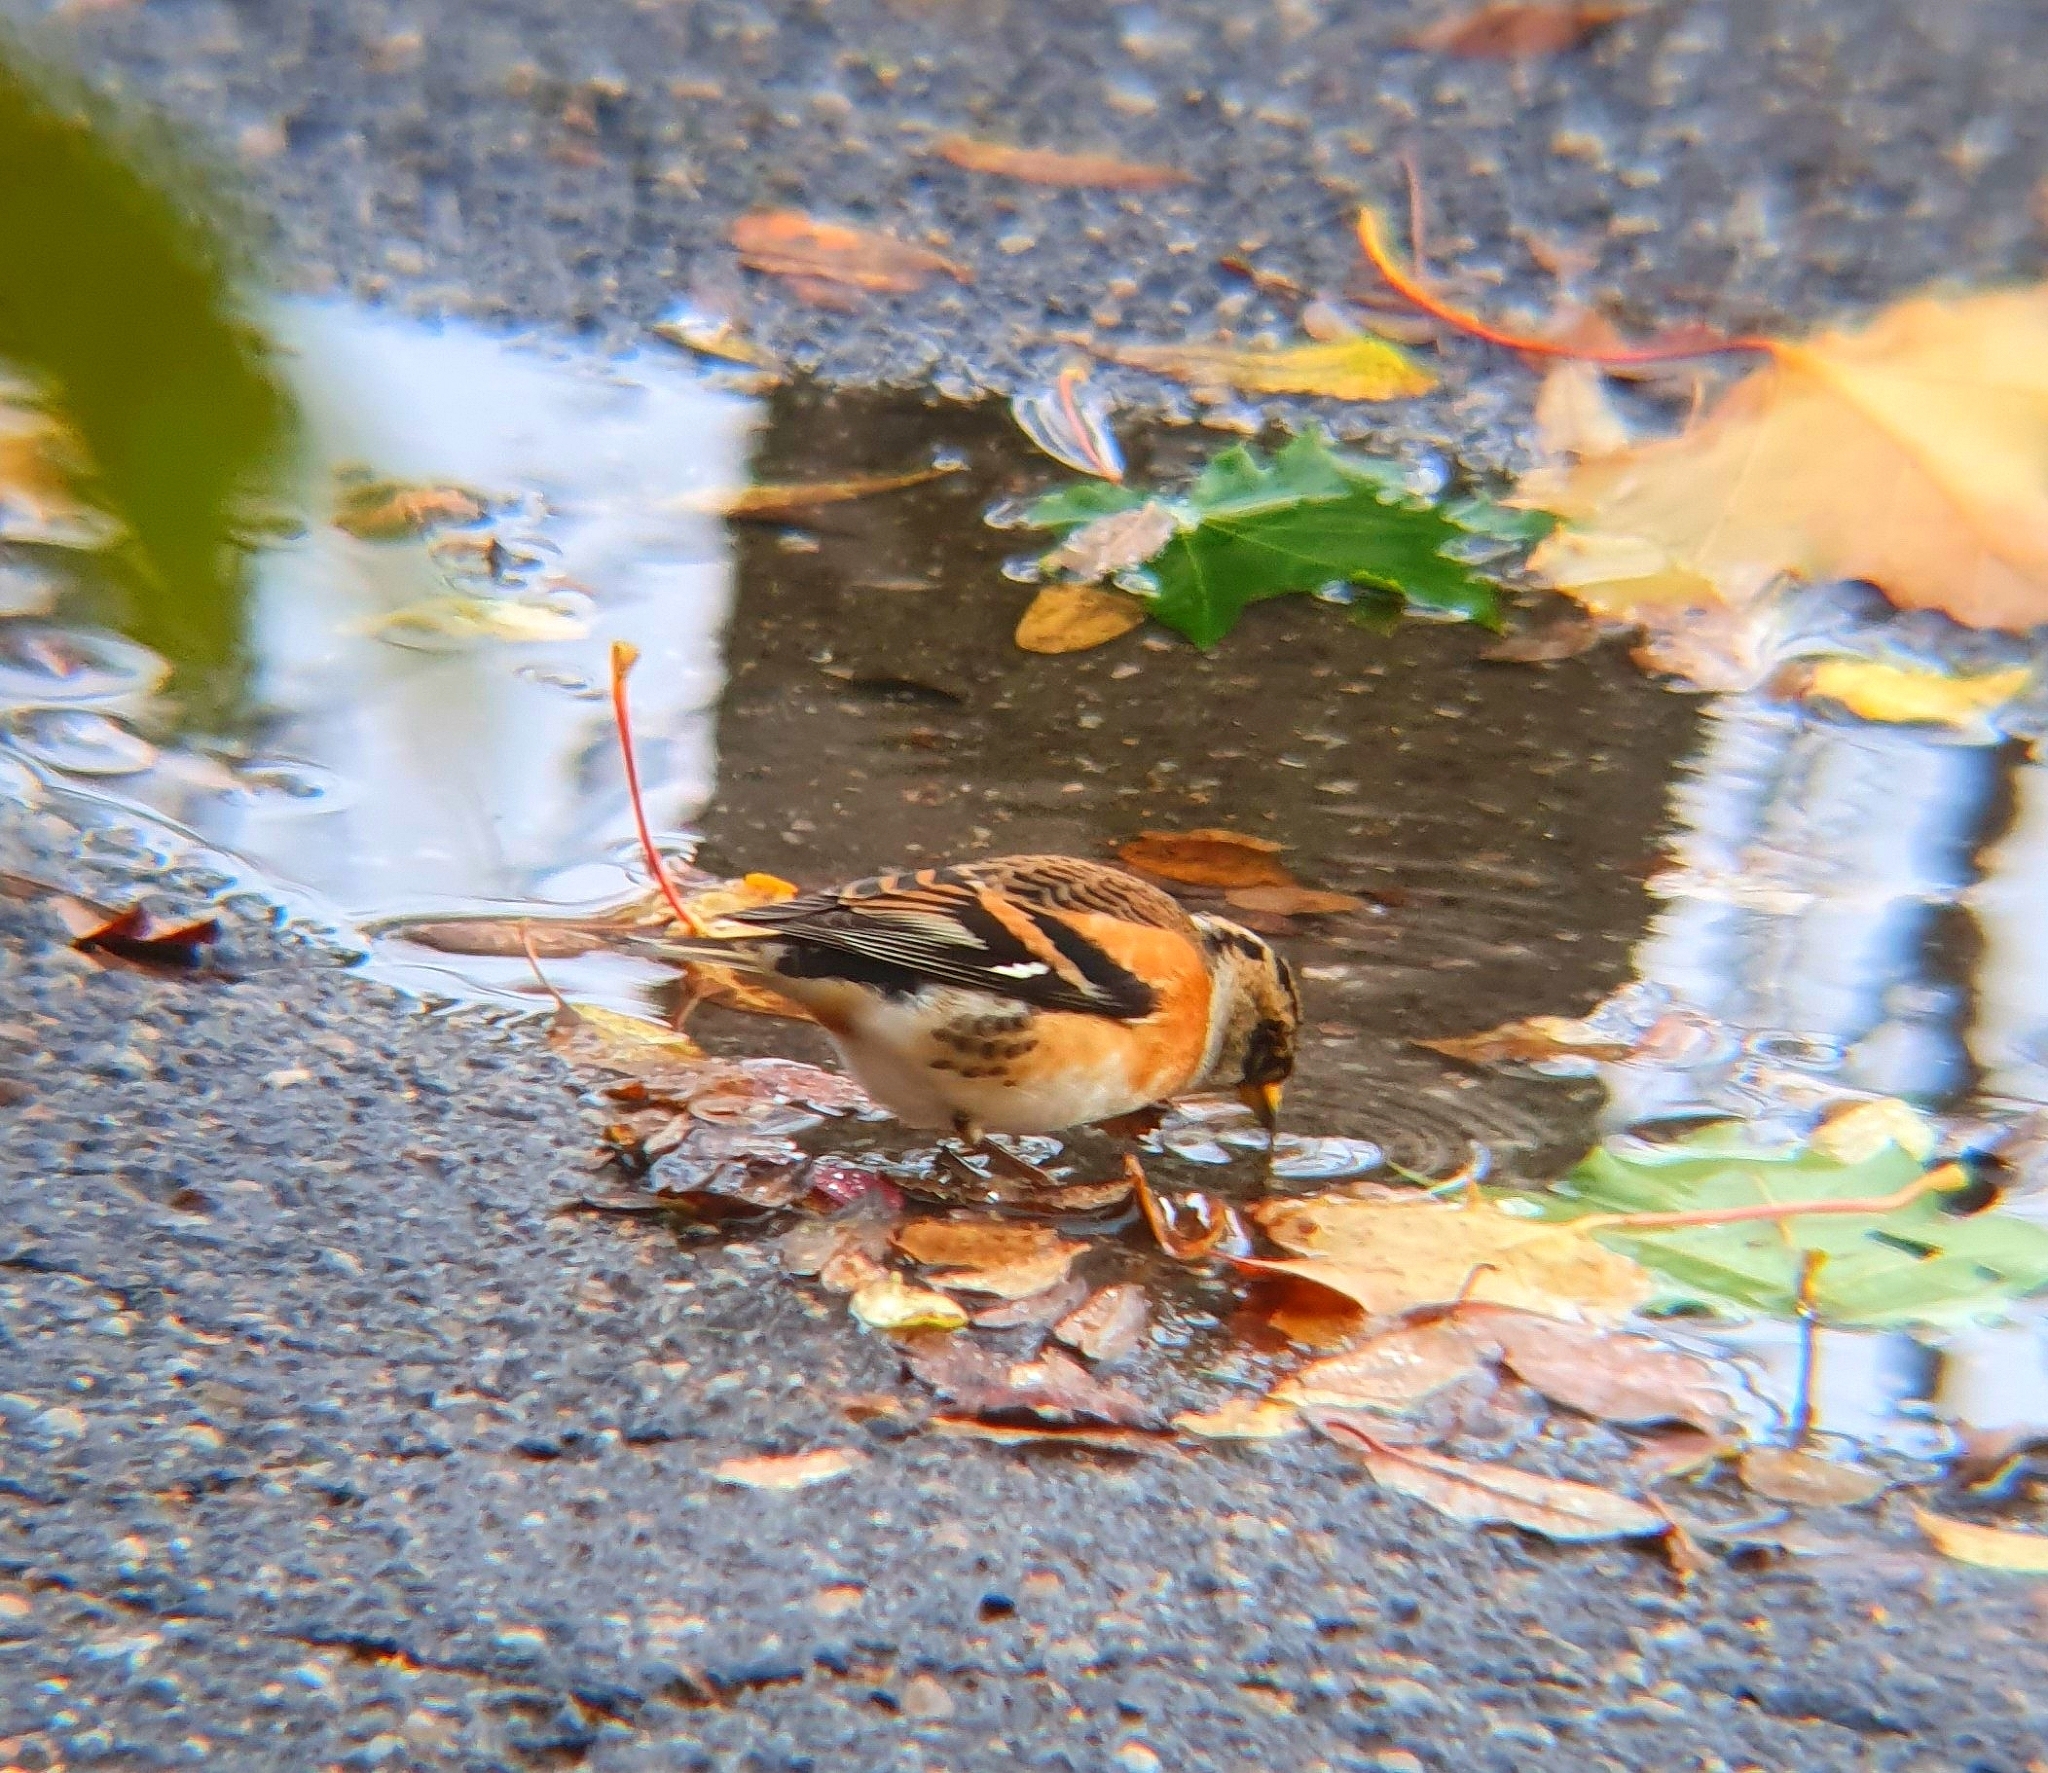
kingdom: Animalia
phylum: Chordata
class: Aves
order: Passeriformes
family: Fringillidae
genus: Fringilla
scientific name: Fringilla montifringilla
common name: Brambling
